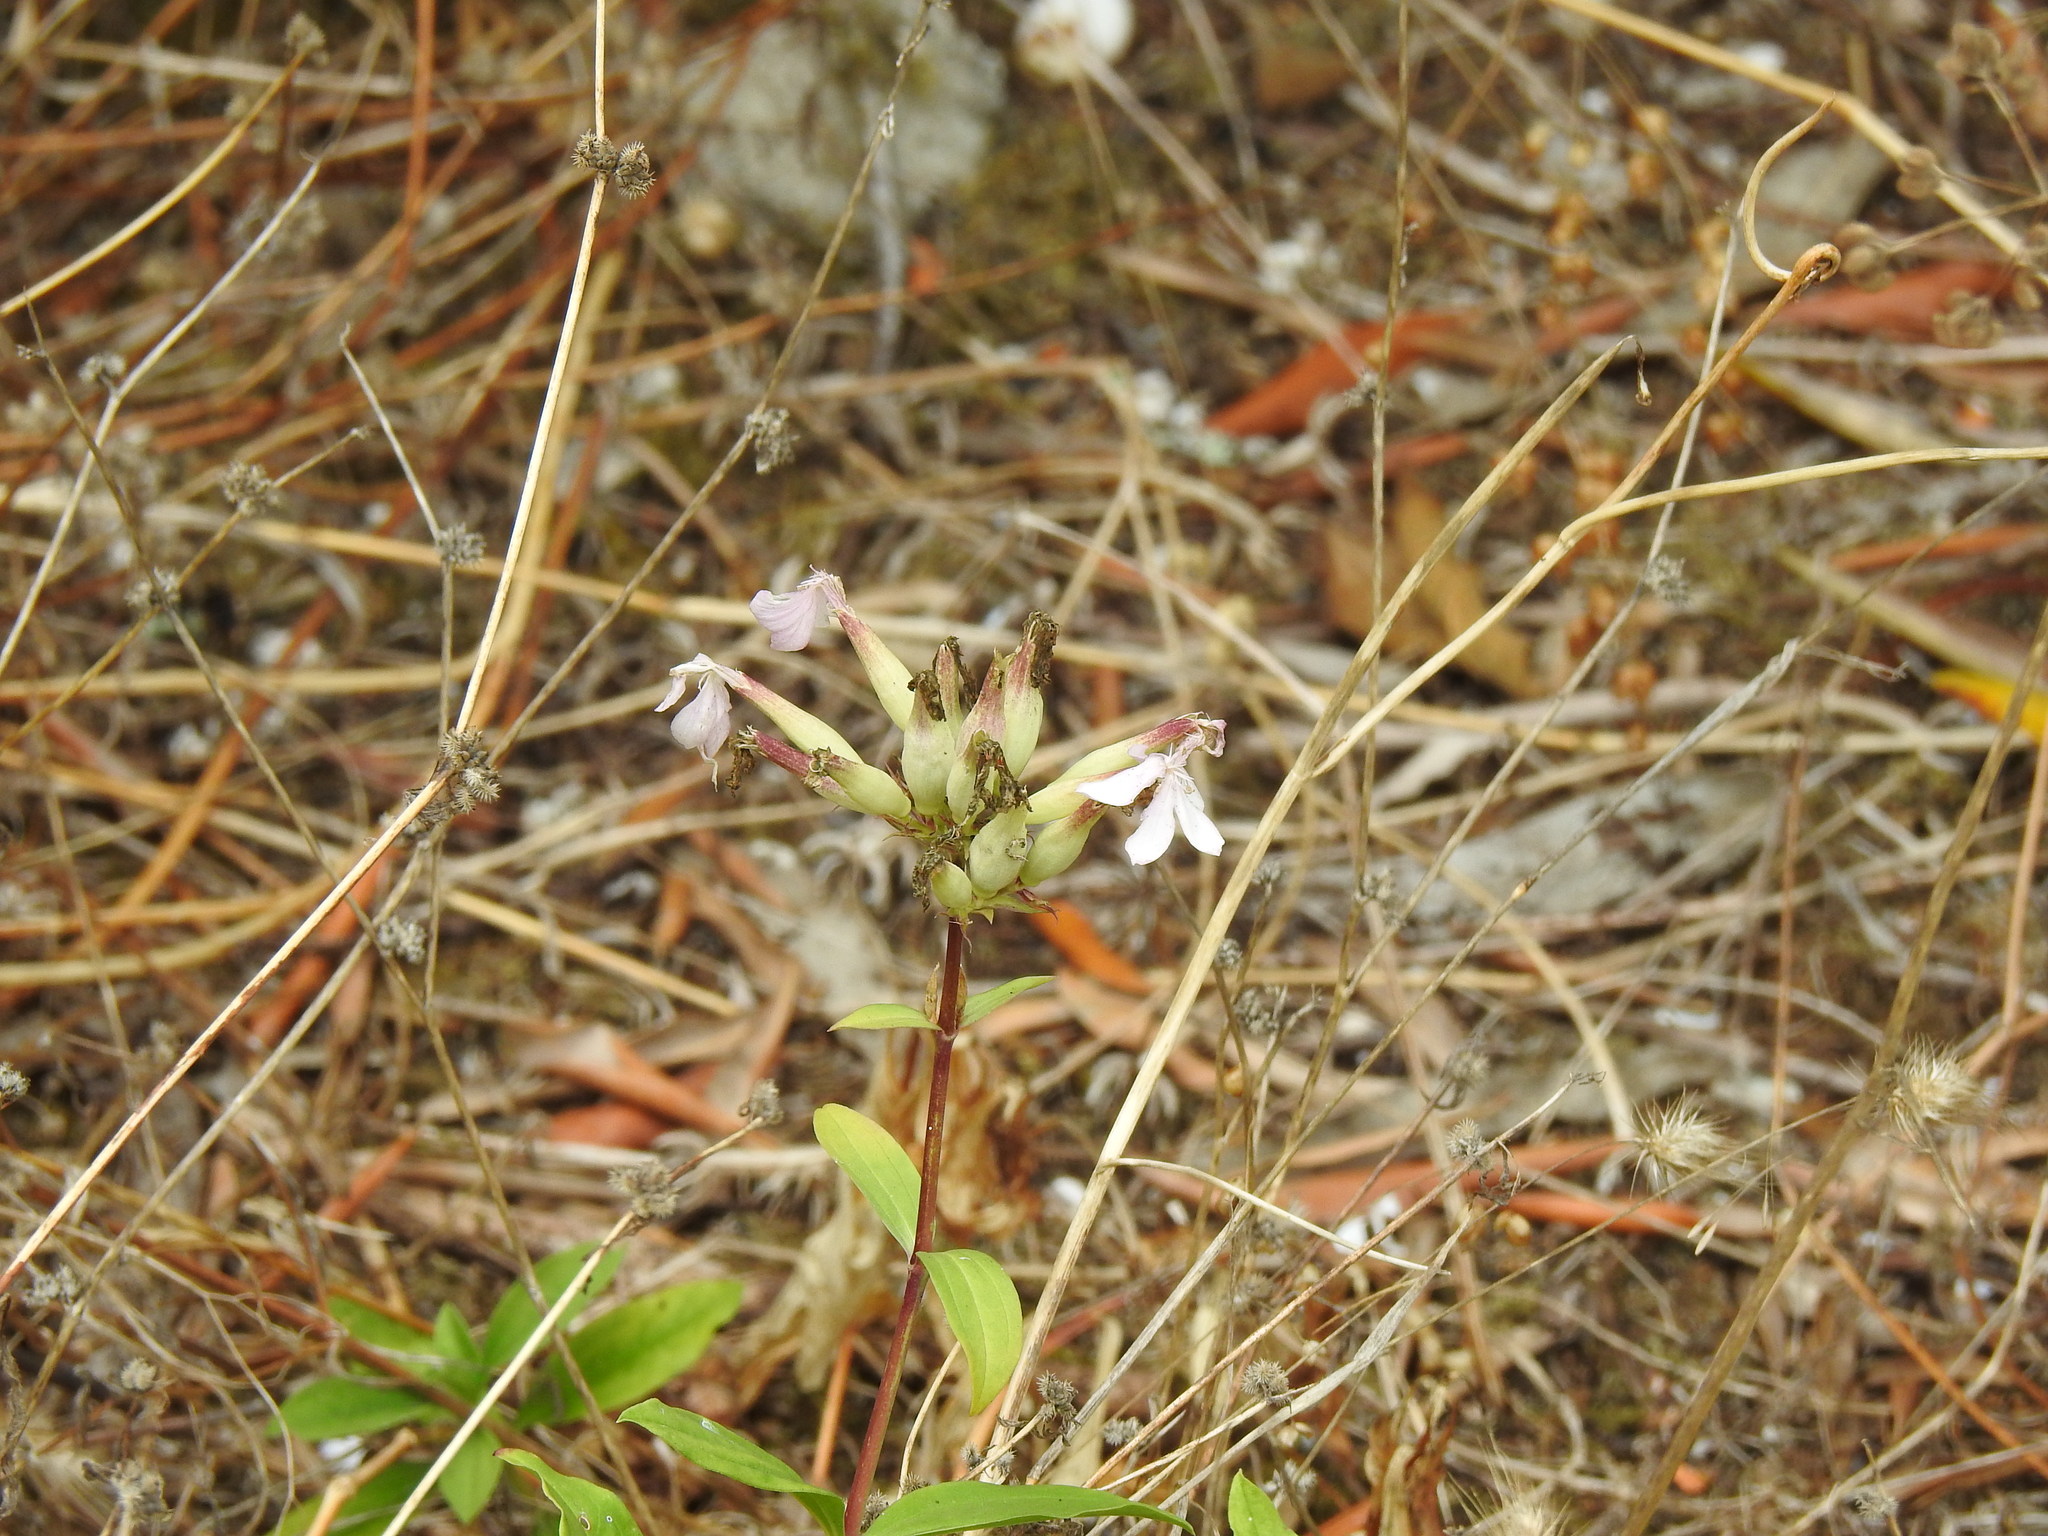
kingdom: Plantae
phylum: Tracheophyta
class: Magnoliopsida
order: Caryophyllales
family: Caryophyllaceae
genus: Saponaria
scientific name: Saponaria officinalis
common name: Soapwort
